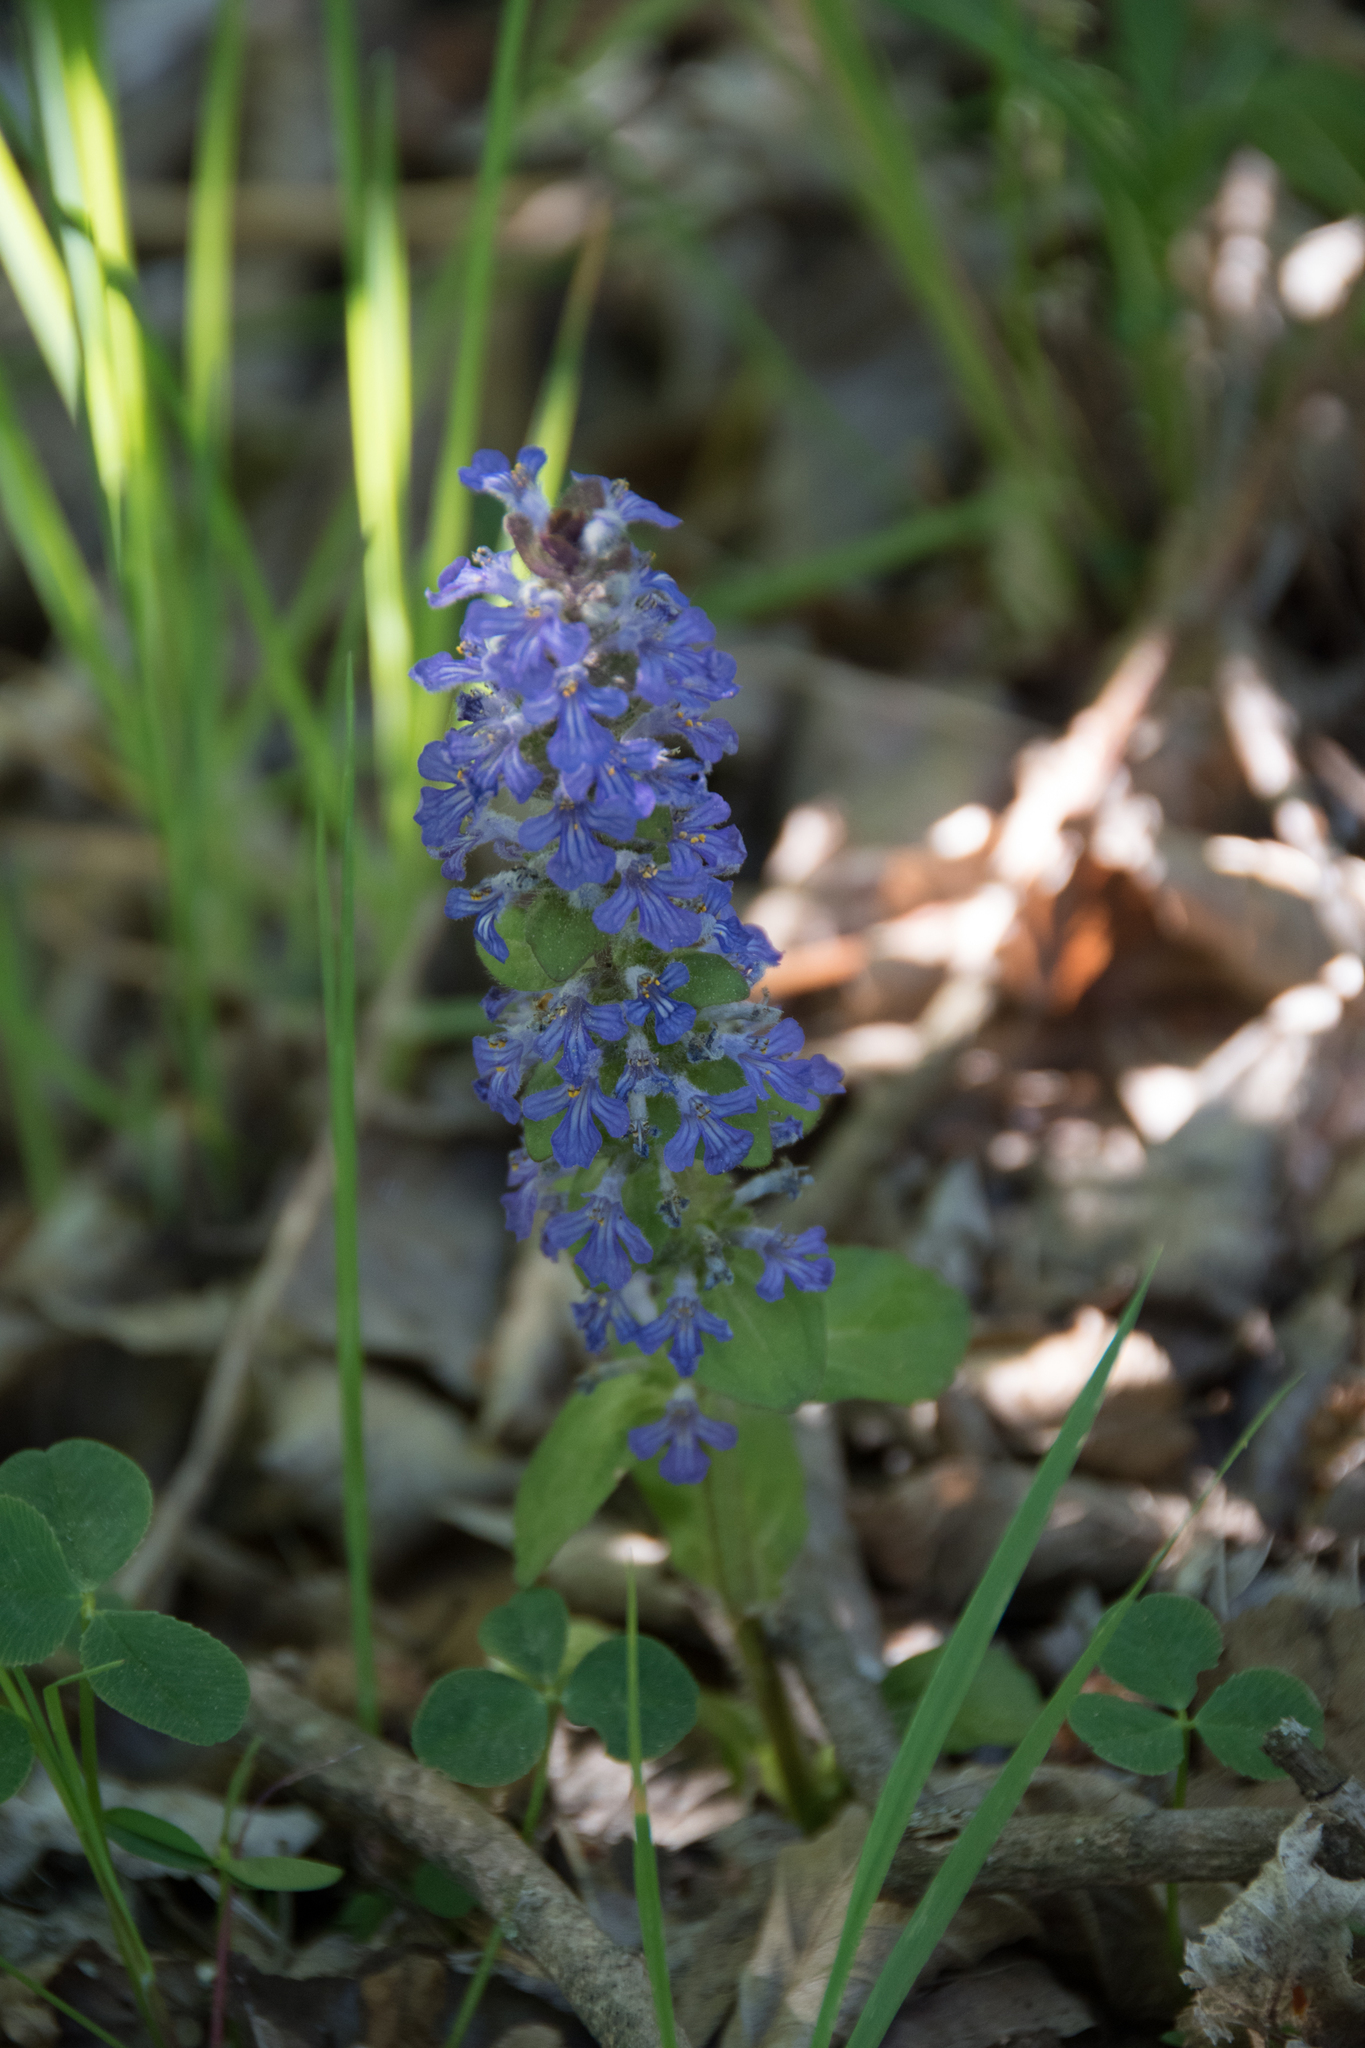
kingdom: Plantae
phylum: Tracheophyta
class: Magnoliopsida
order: Lamiales
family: Lamiaceae
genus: Ajuga
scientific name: Ajuga reptans
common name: Bugle
